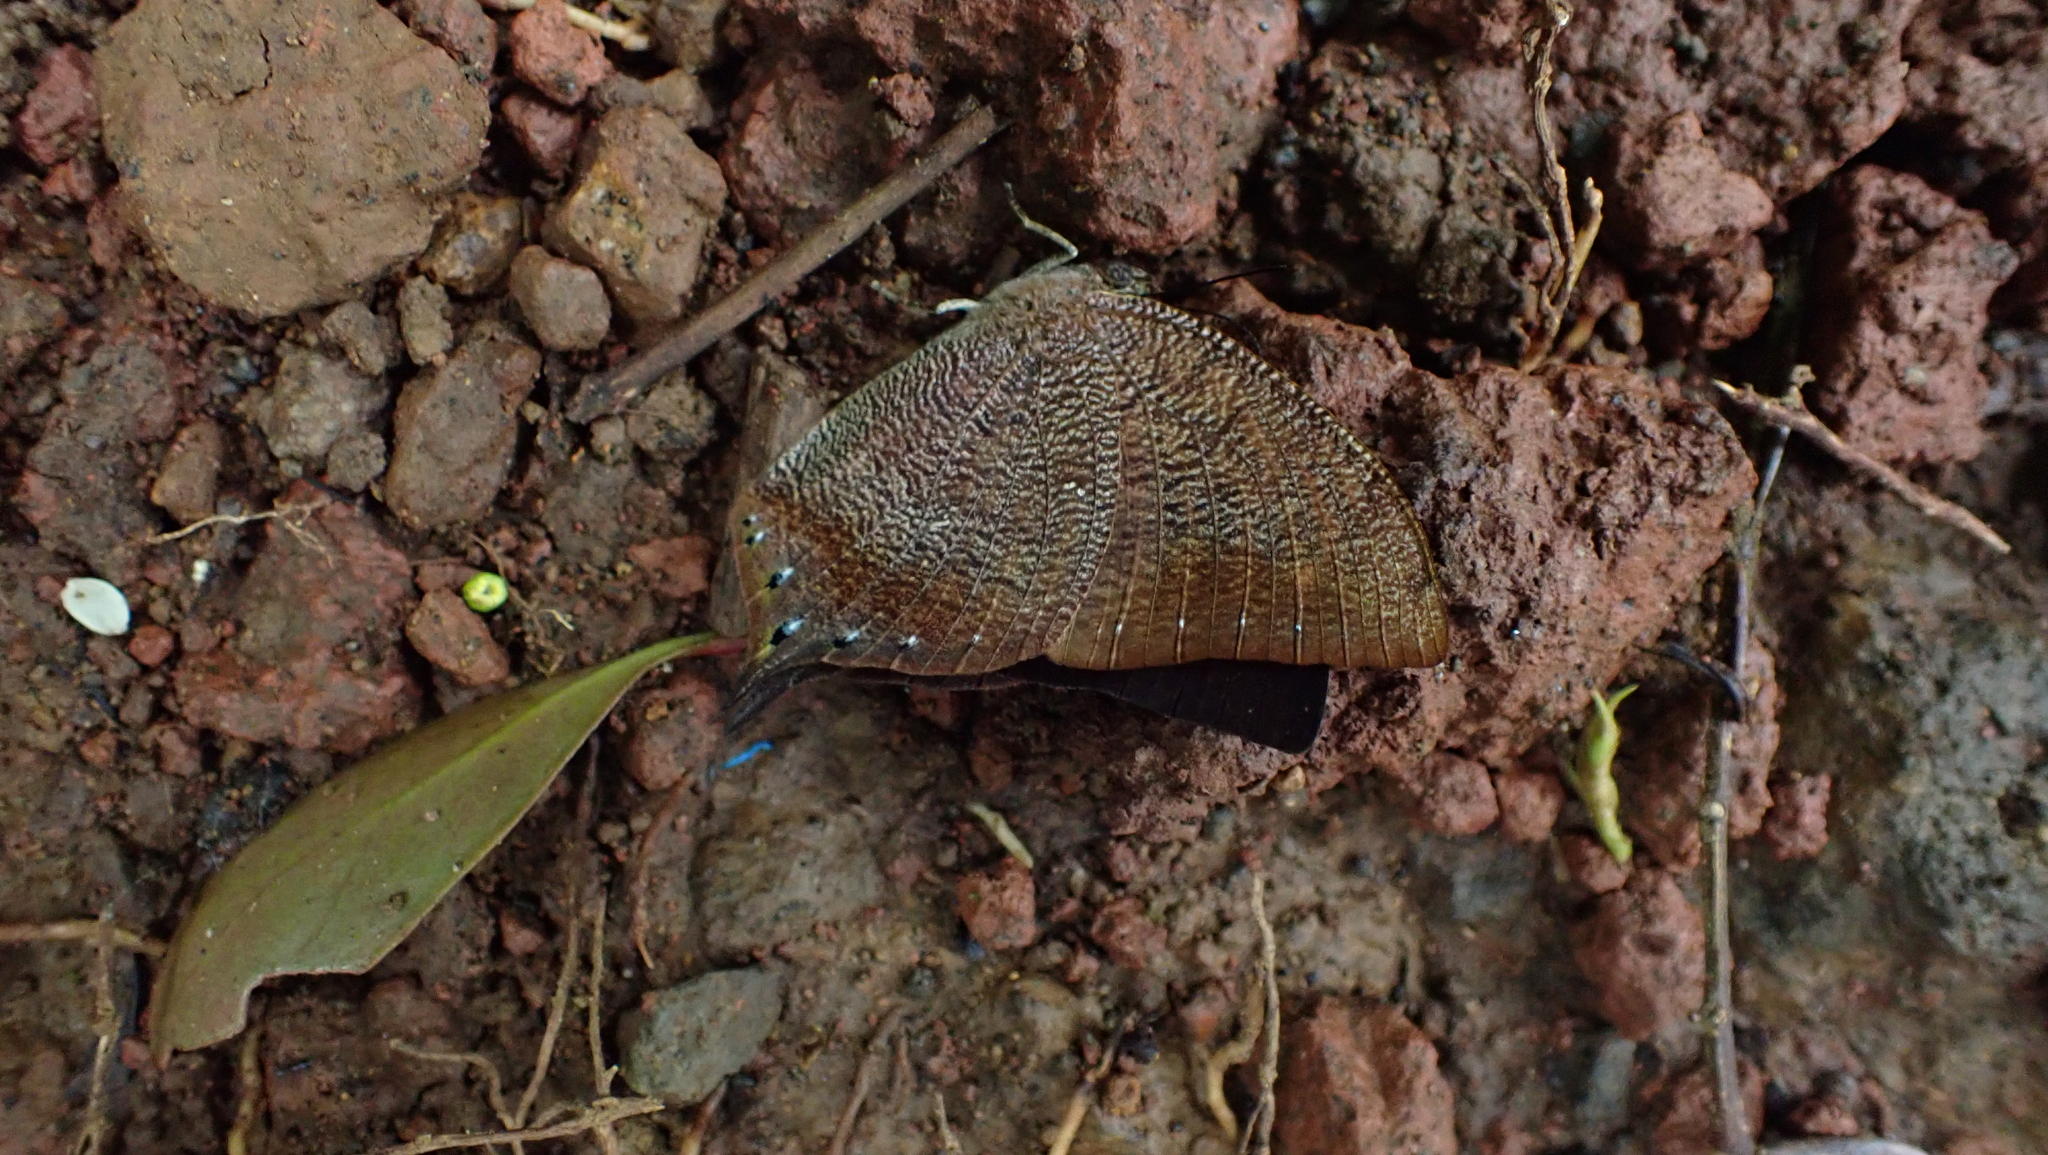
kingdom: Animalia
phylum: Arthropoda
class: Insecta
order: Lepidoptera
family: Nymphalidae
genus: Fountainea
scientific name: Fountainea
